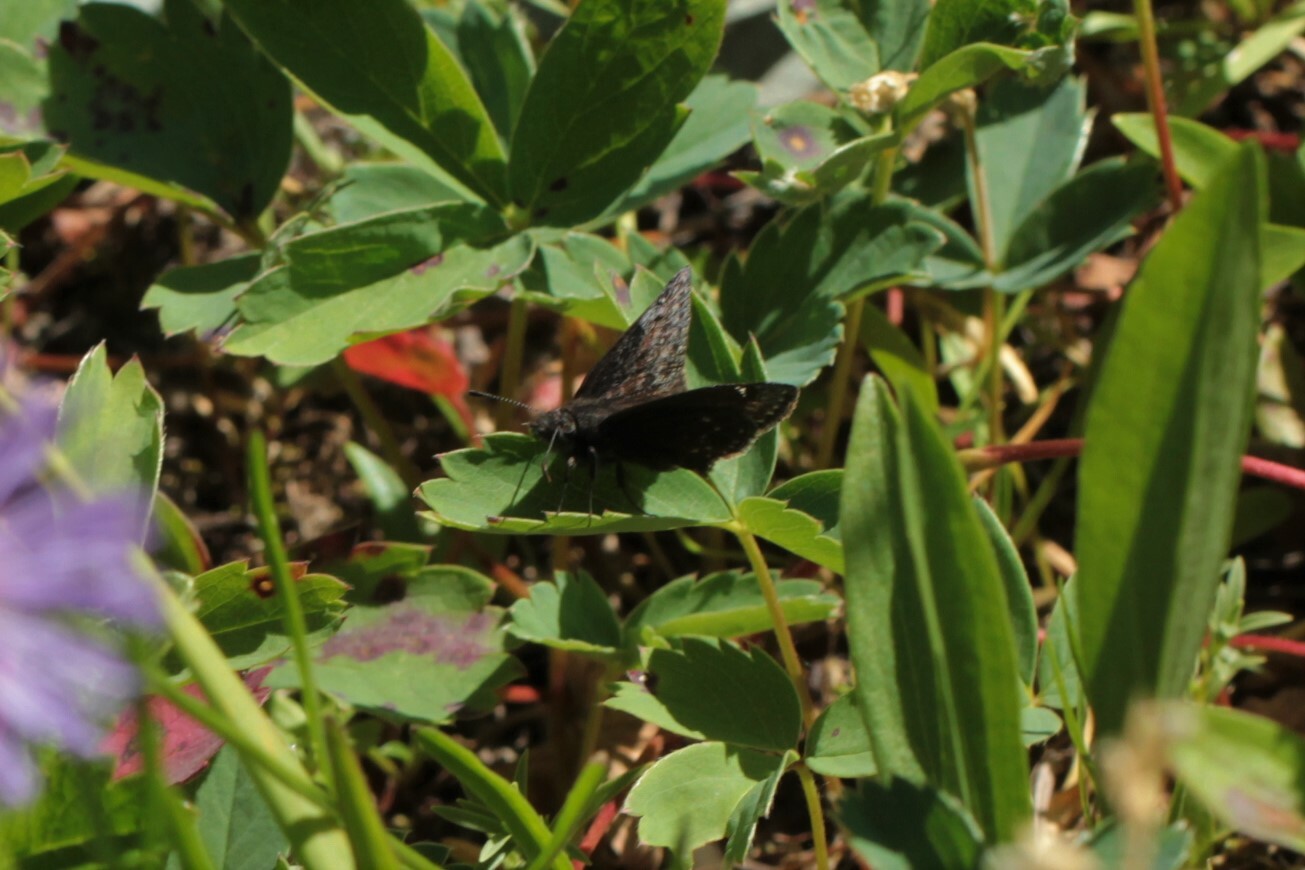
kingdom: Animalia
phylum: Arthropoda
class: Insecta
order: Lepidoptera
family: Hesperiidae
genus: Erynnis
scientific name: Erynnis persius
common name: Persius duskywing
